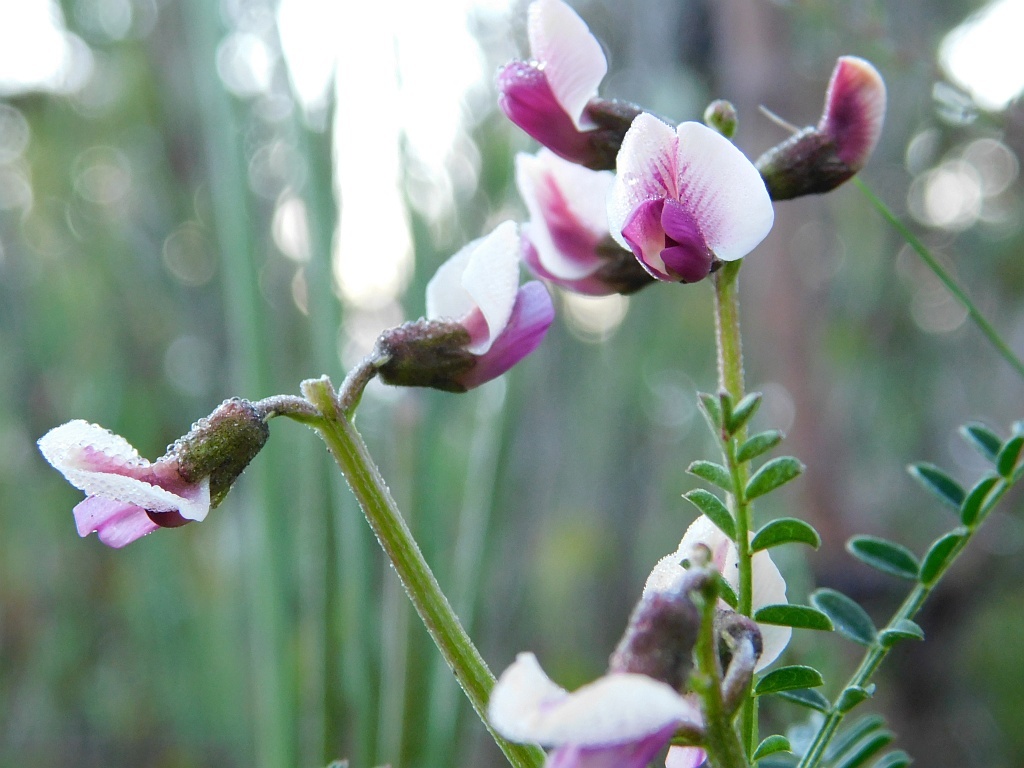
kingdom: Plantae
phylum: Tracheophyta
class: Magnoliopsida
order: Fabales
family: Fabaceae
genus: Lessertia
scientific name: Lessertia pauciflora
